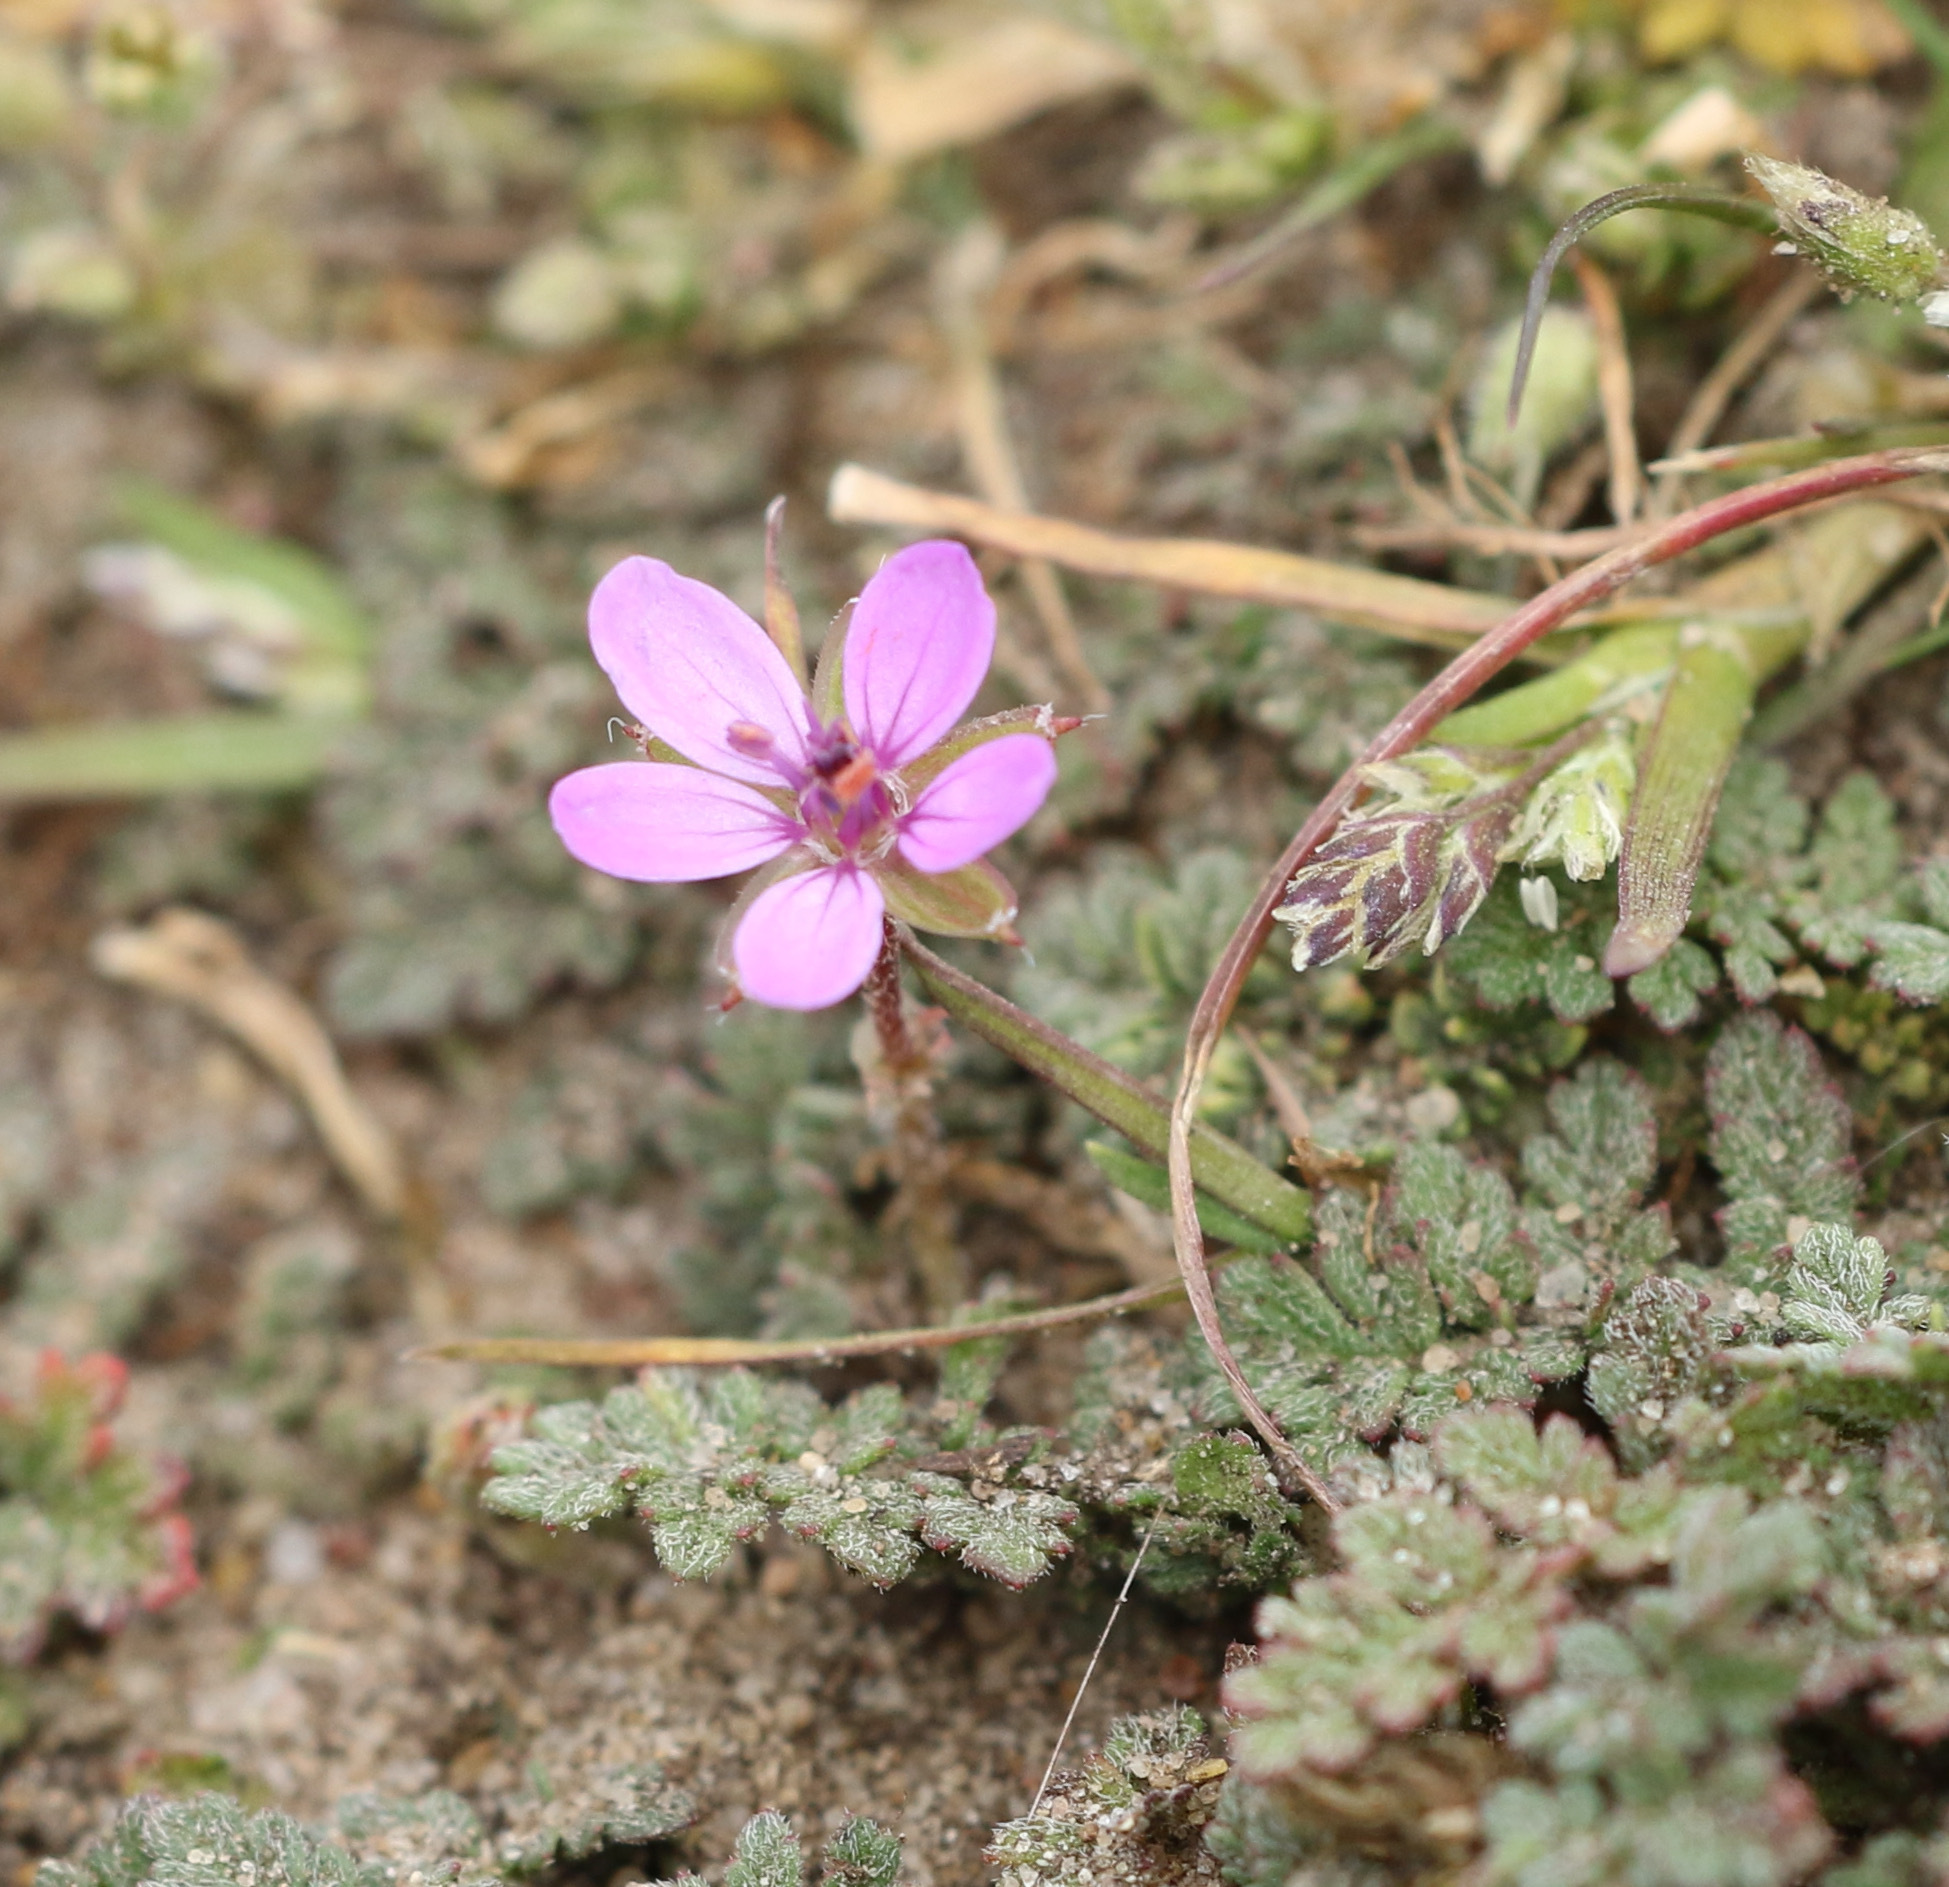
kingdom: Plantae
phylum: Tracheophyta
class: Magnoliopsida
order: Geraniales
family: Geraniaceae
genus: Erodium
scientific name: Erodium cicutarium
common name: Common stork's-bill
